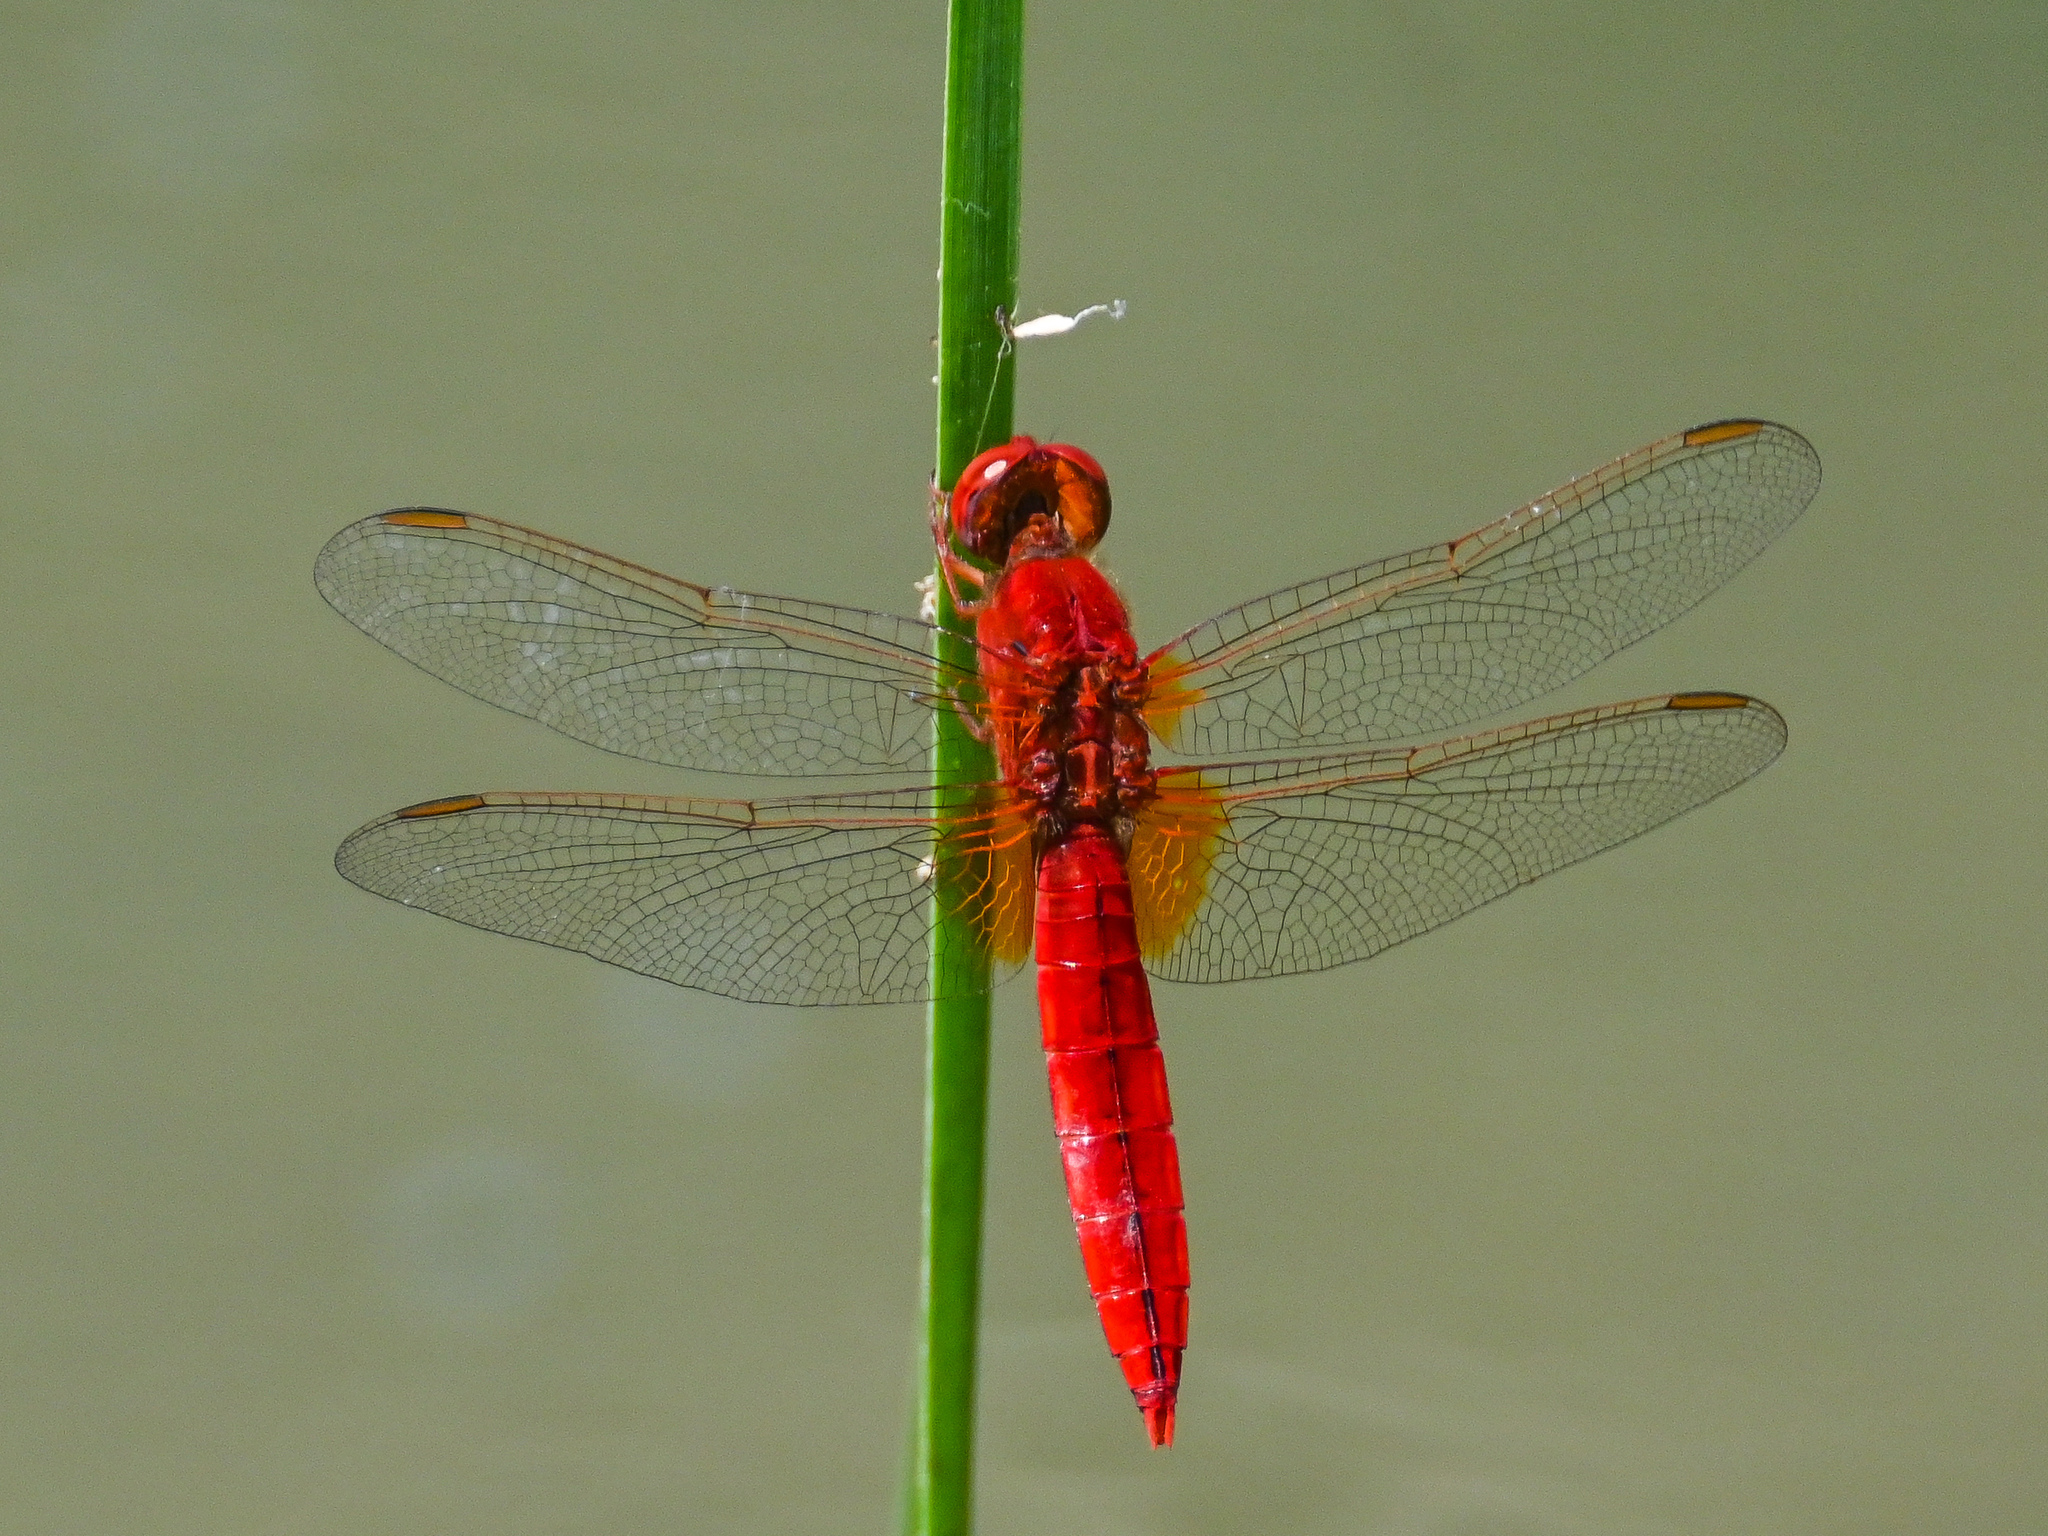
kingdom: Animalia
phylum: Arthropoda
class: Insecta
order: Odonata
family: Libellulidae
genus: Crocothemis
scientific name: Crocothemis erythraea
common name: Scarlet dragonfly
